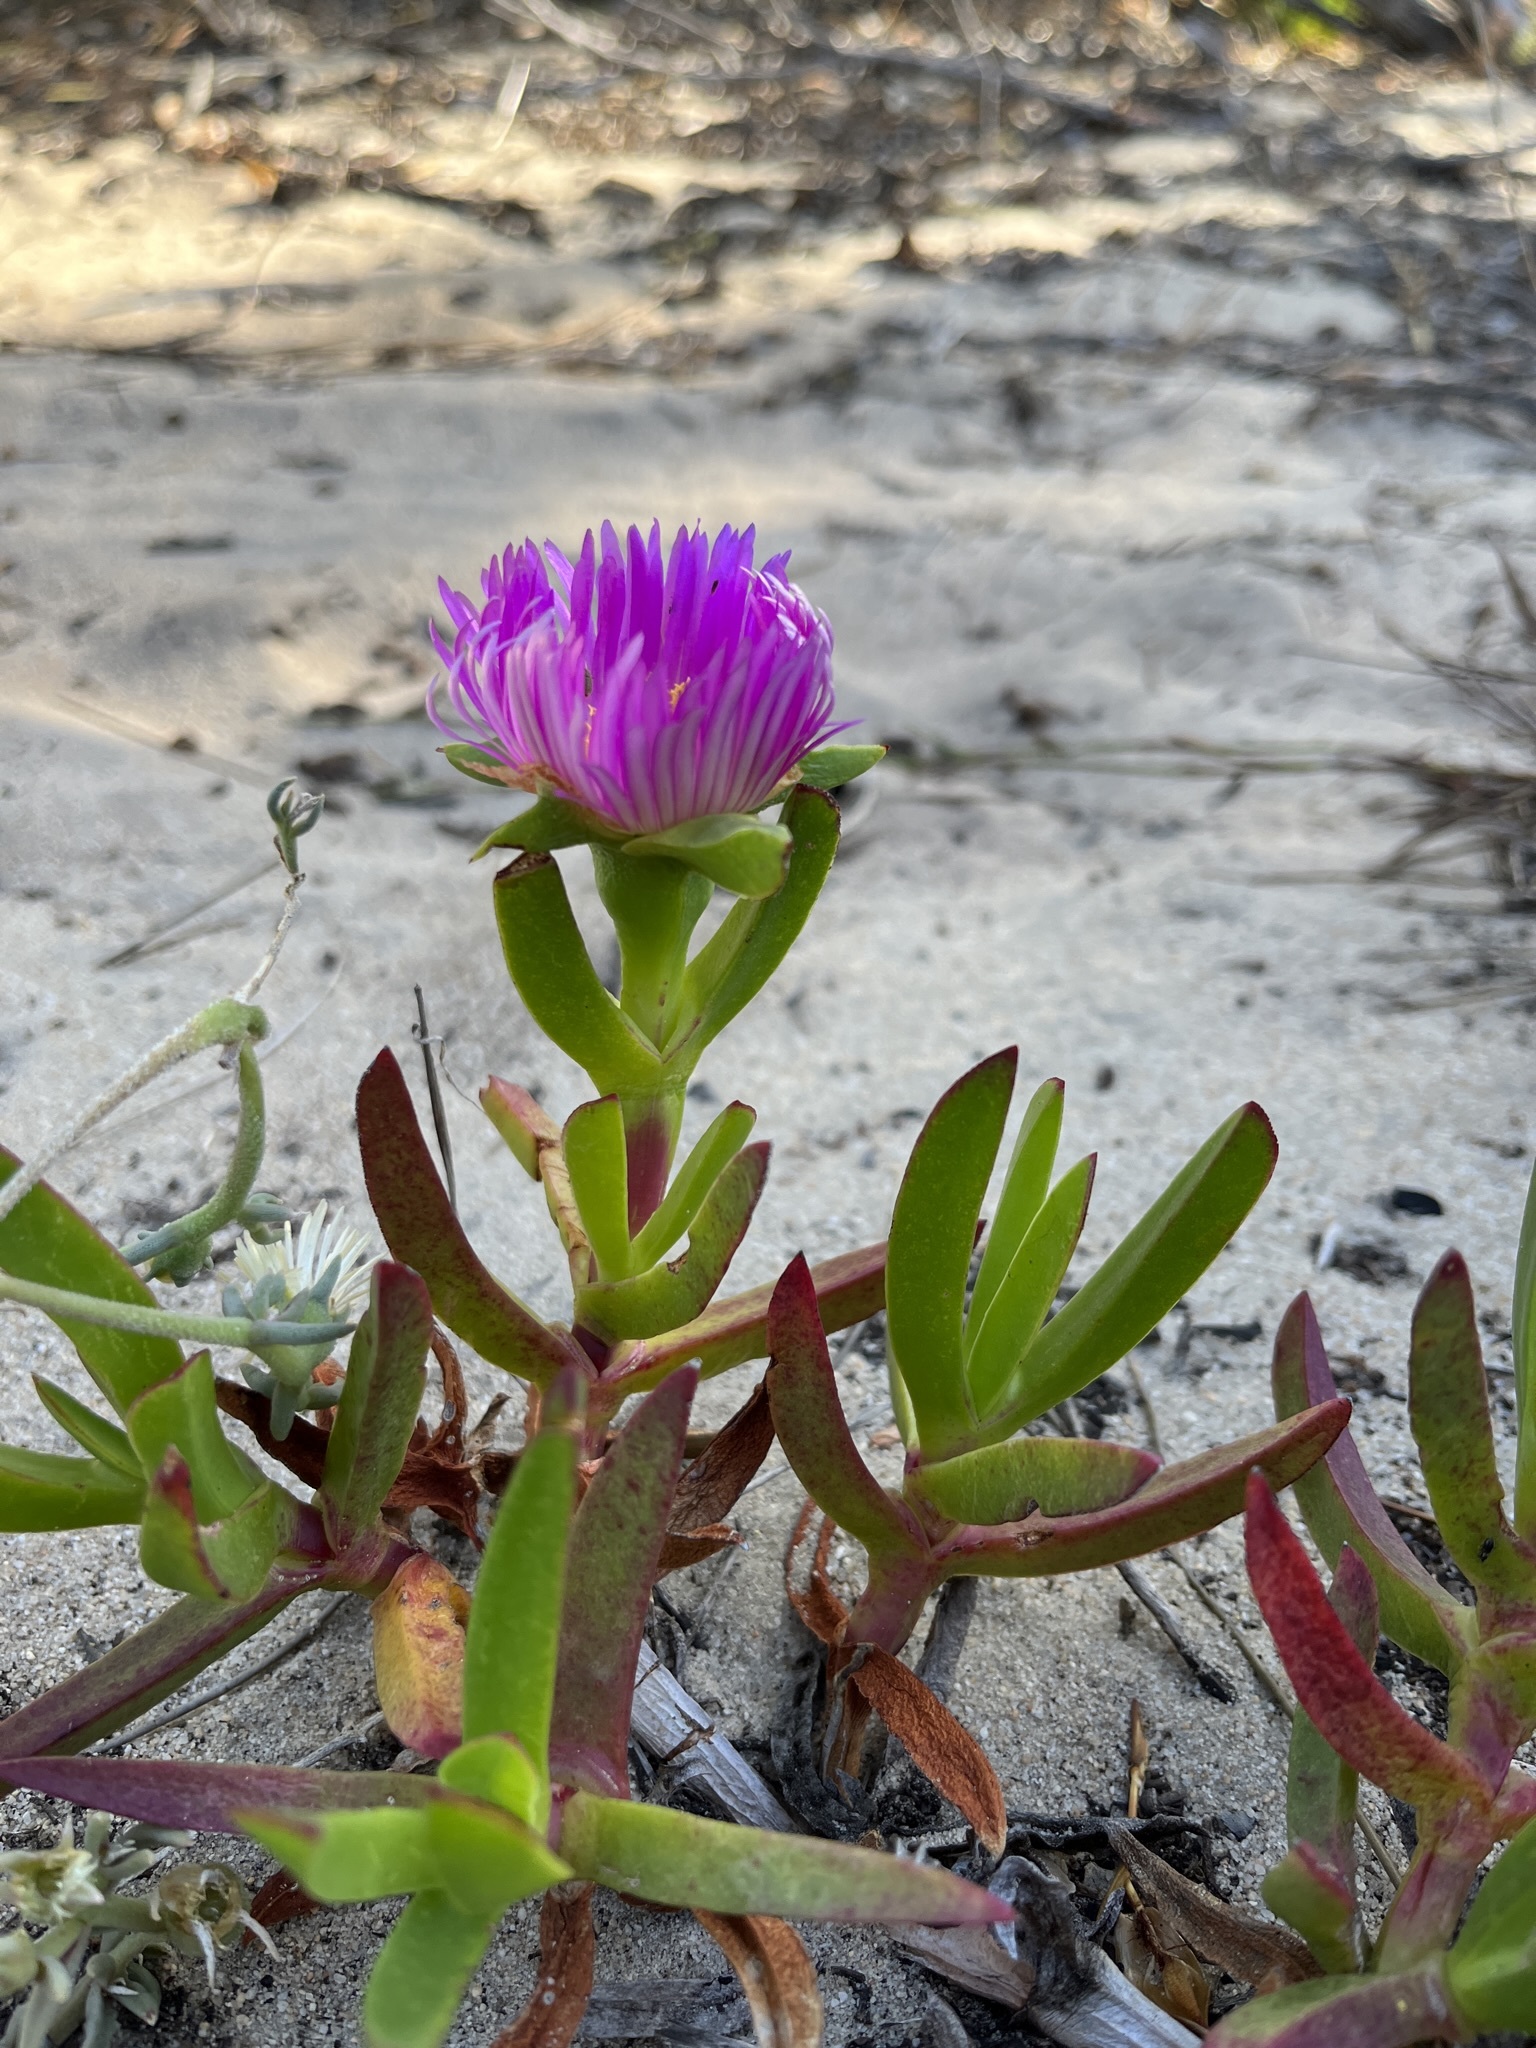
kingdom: Plantae
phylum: Tracheophyta
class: Magnoliopsida
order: Caryophyllales
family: Aizoaceae
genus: Carpobrotus
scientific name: Carpobrotus acinaciformis
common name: Sally-my-handsome
